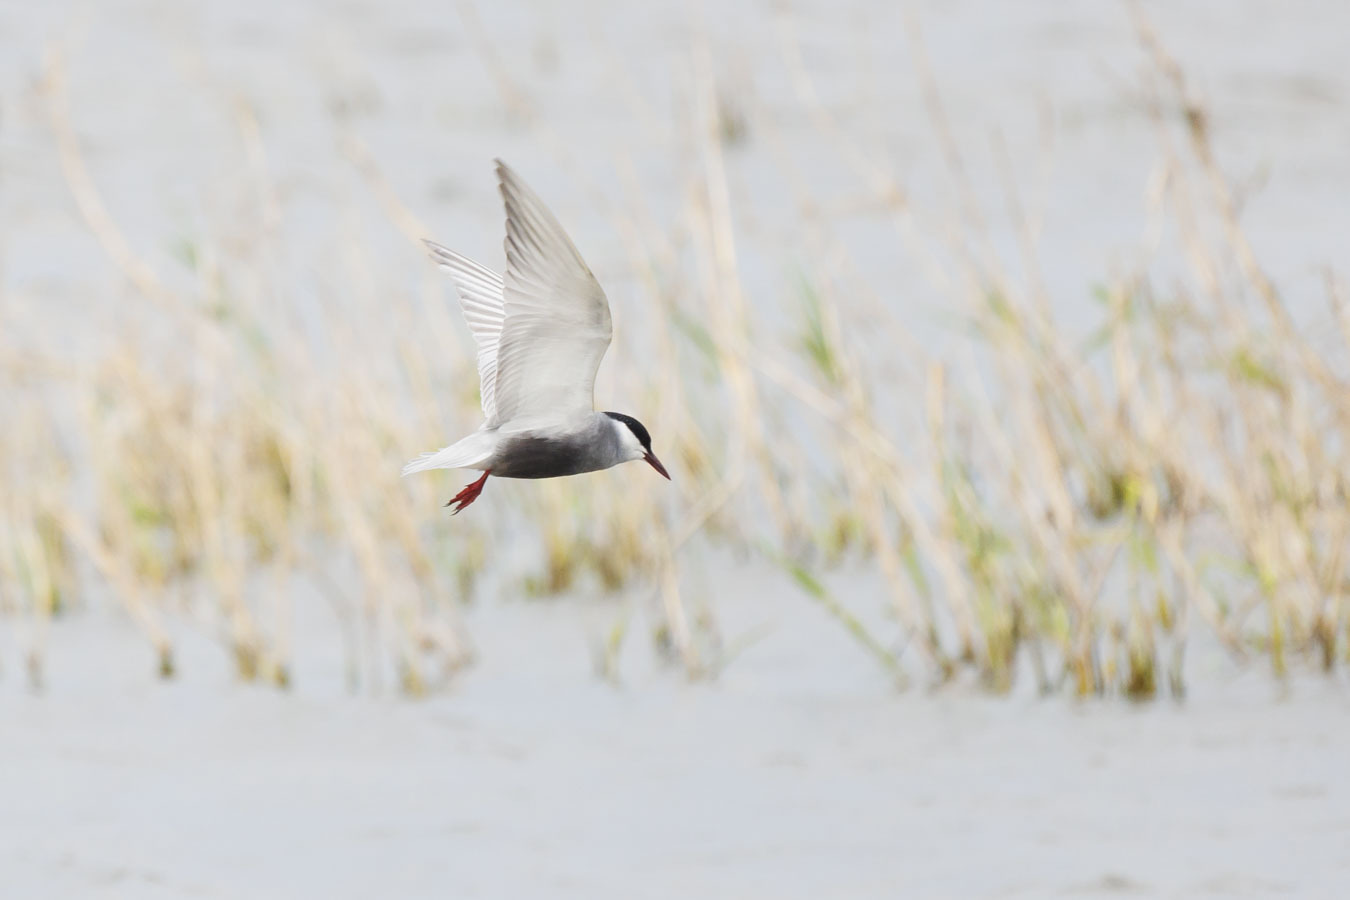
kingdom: Animalia
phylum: Chordata
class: Aves
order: Charadriiformes
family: Laridae
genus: Chlidonias
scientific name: Chlidonias hybrida
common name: Whiskered tern
